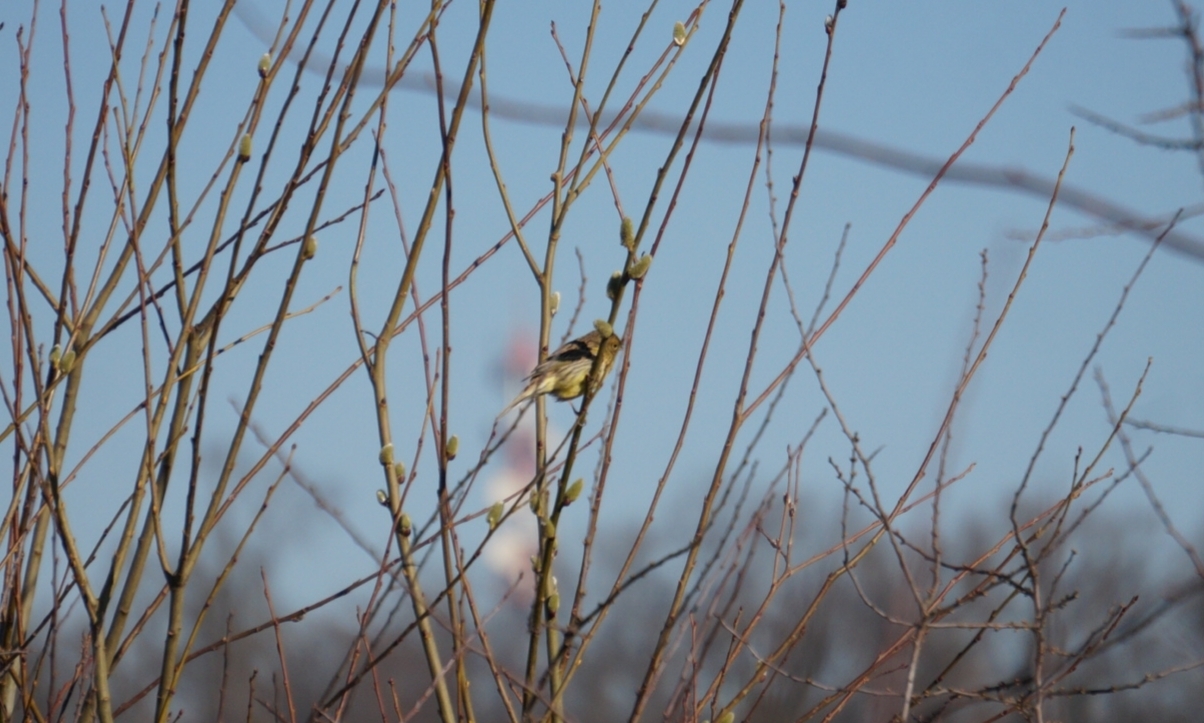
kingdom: Animalia
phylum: Chordata
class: Aves
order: Passeriformes
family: Fringillidae
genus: Serinus
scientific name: Serinus serinus
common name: European serin
